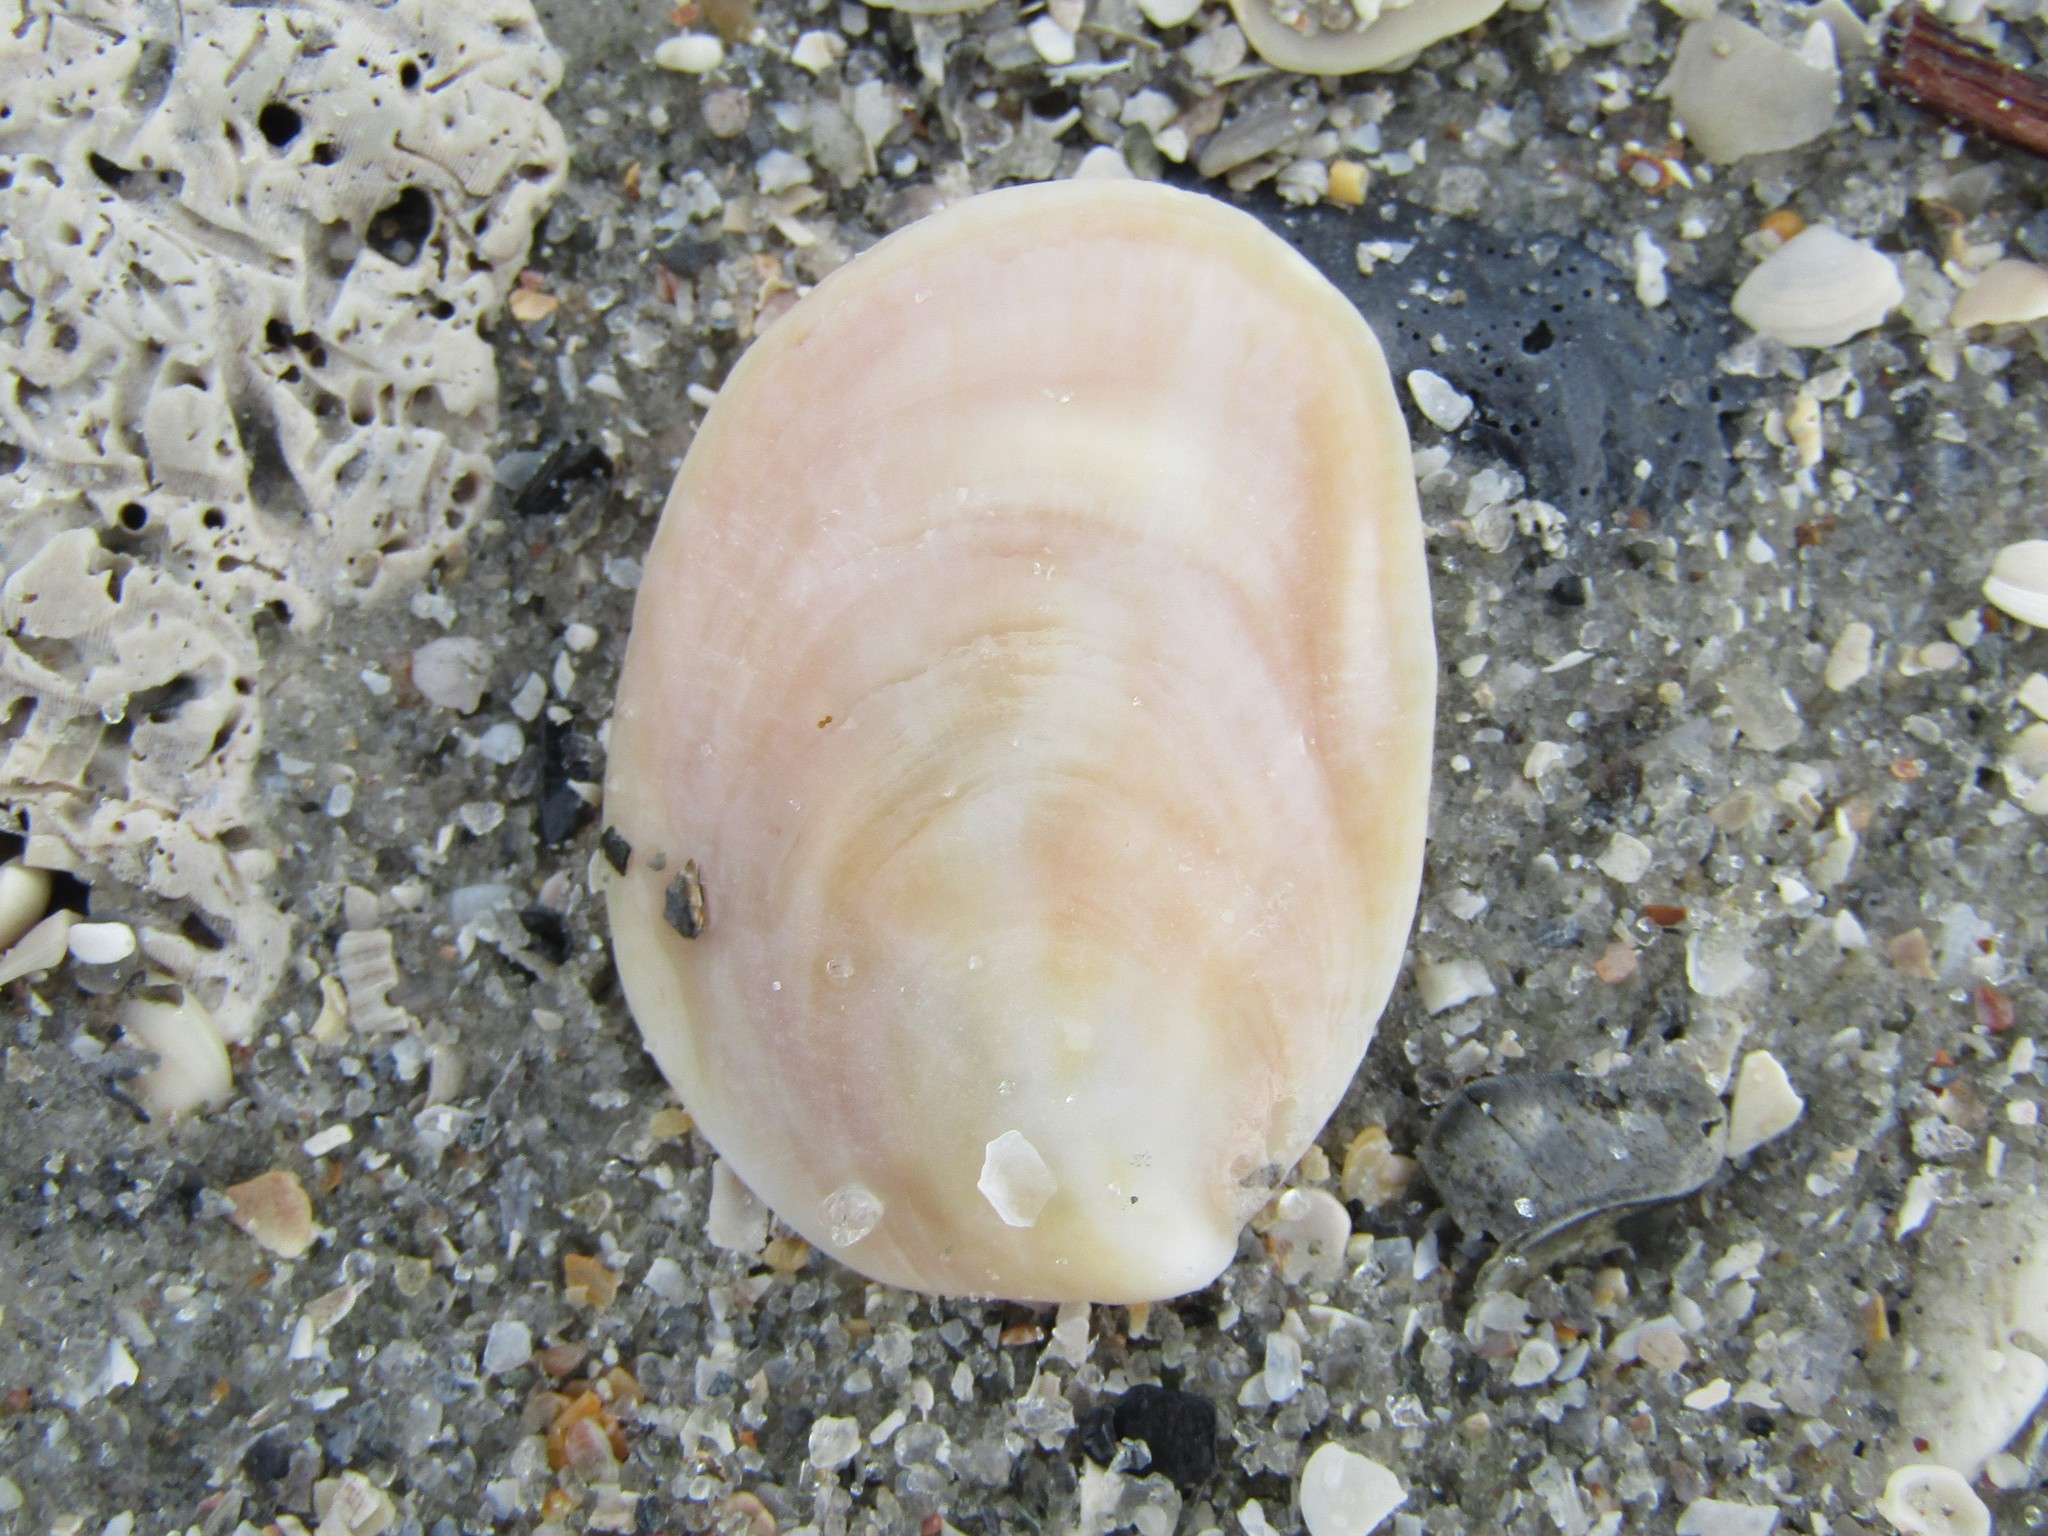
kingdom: Animalia
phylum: Mollusca
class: Gastropoda
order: Littorinimorpha
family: Calyptraeidae
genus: Crepidula
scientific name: Crepidula fornicata
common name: Slipper limpet
